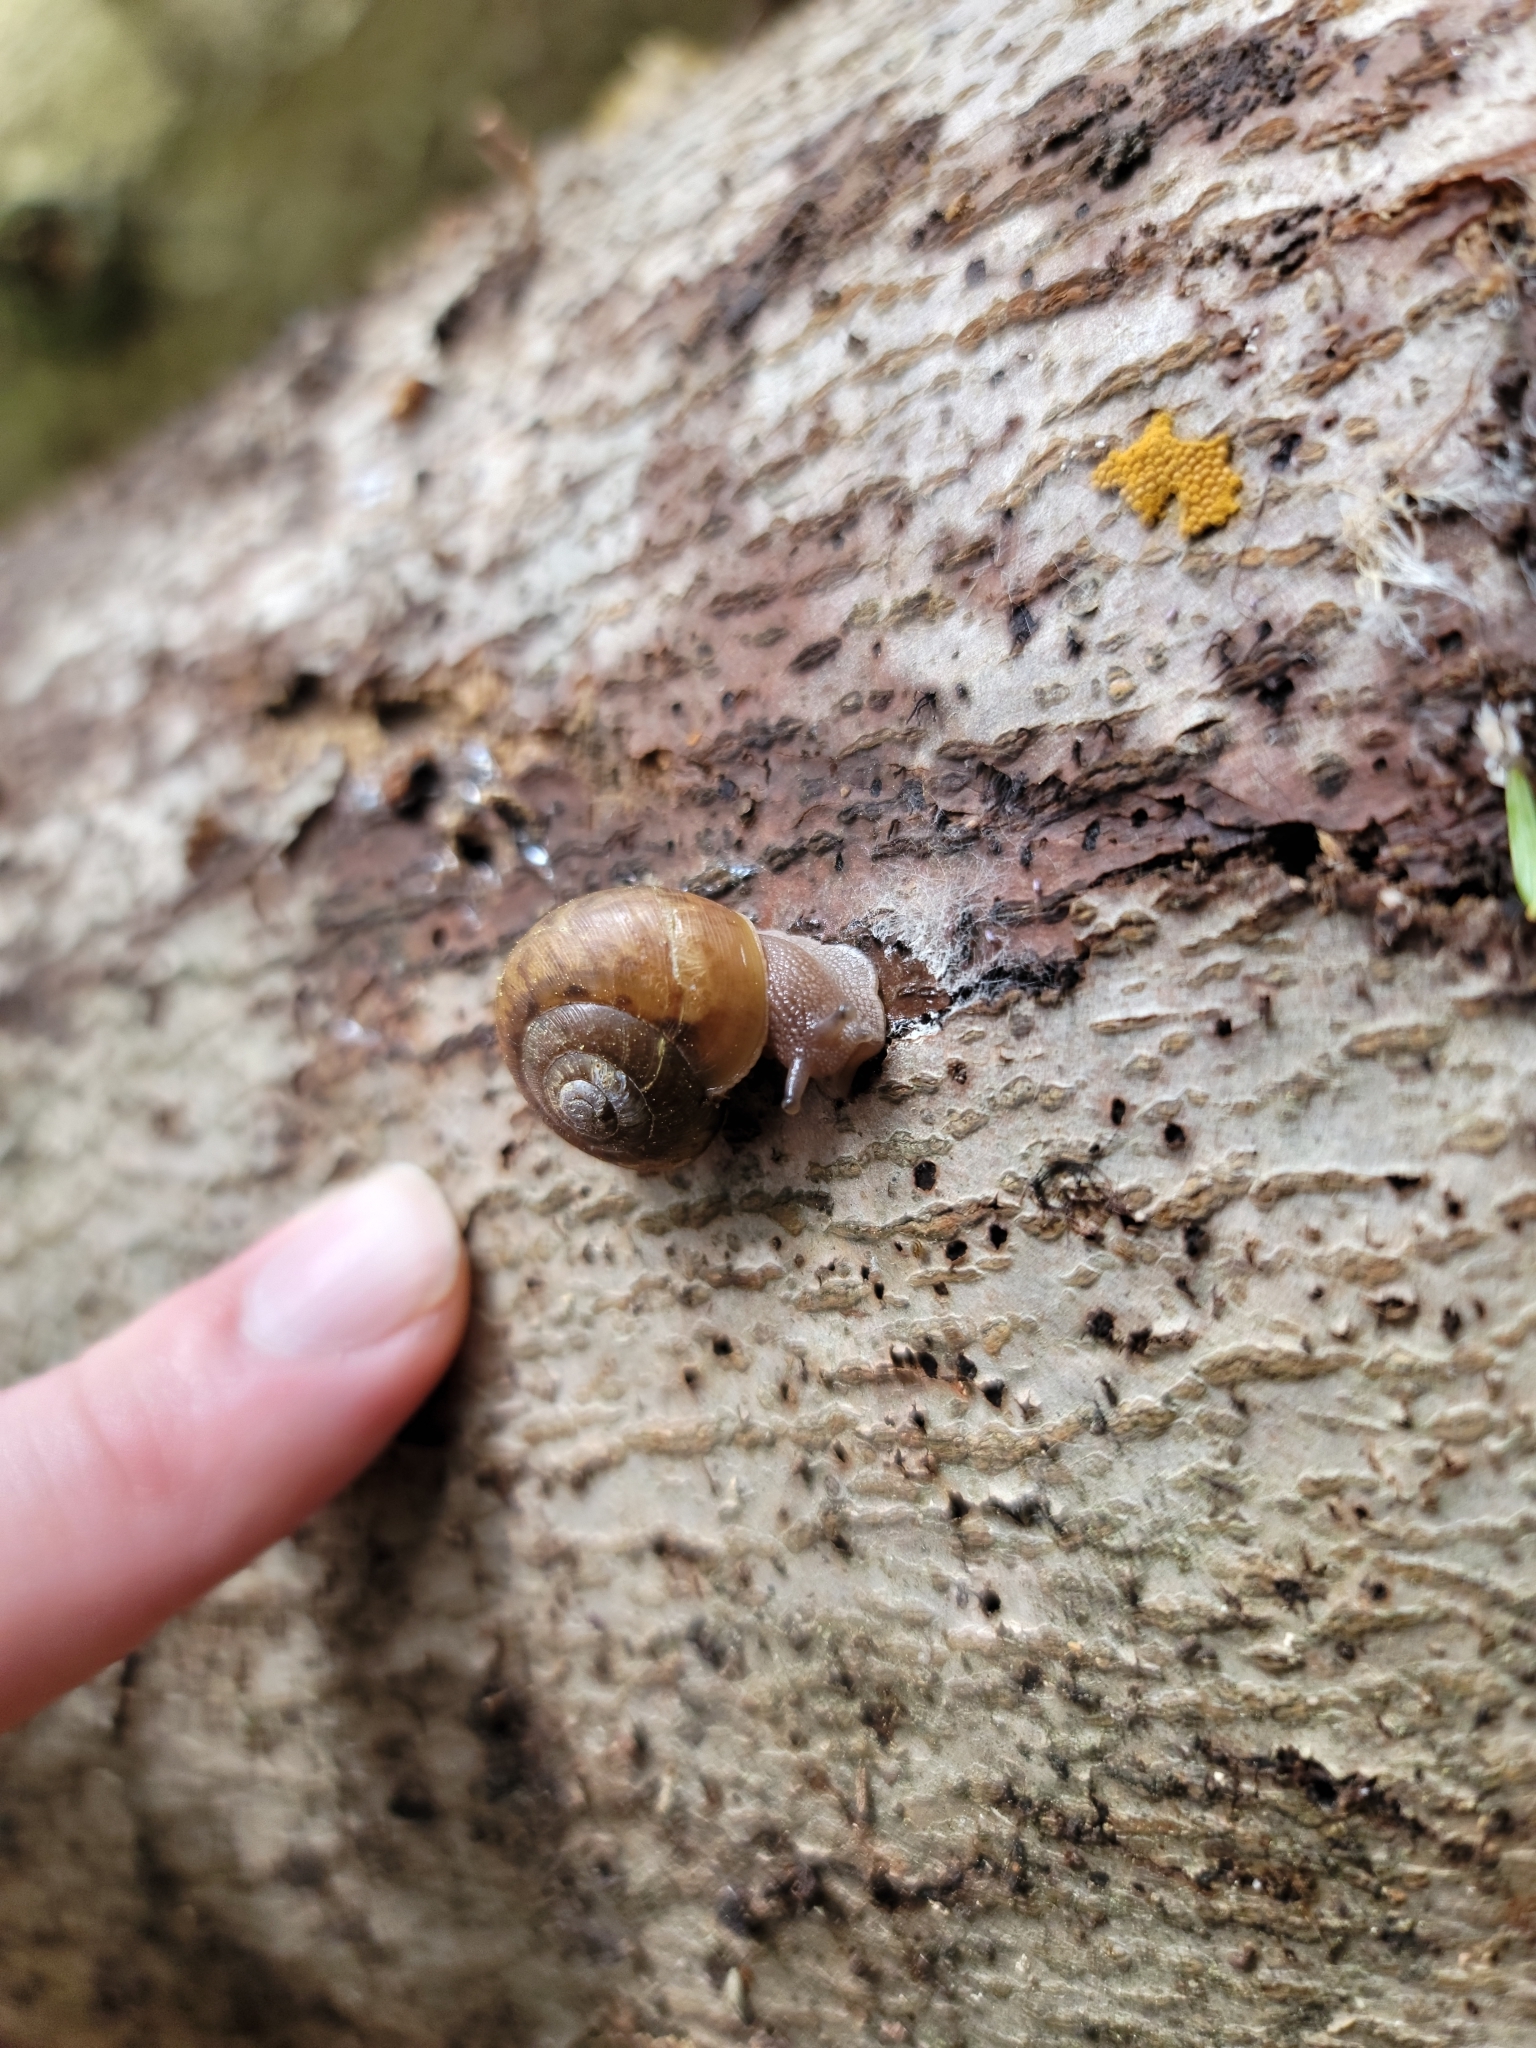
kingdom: Animalia
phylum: Mollusca
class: Gastropoda
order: Stylommatophora
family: Polygyridae
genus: Mesodon
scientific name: Mesodon thyroidus
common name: White-lip globe
